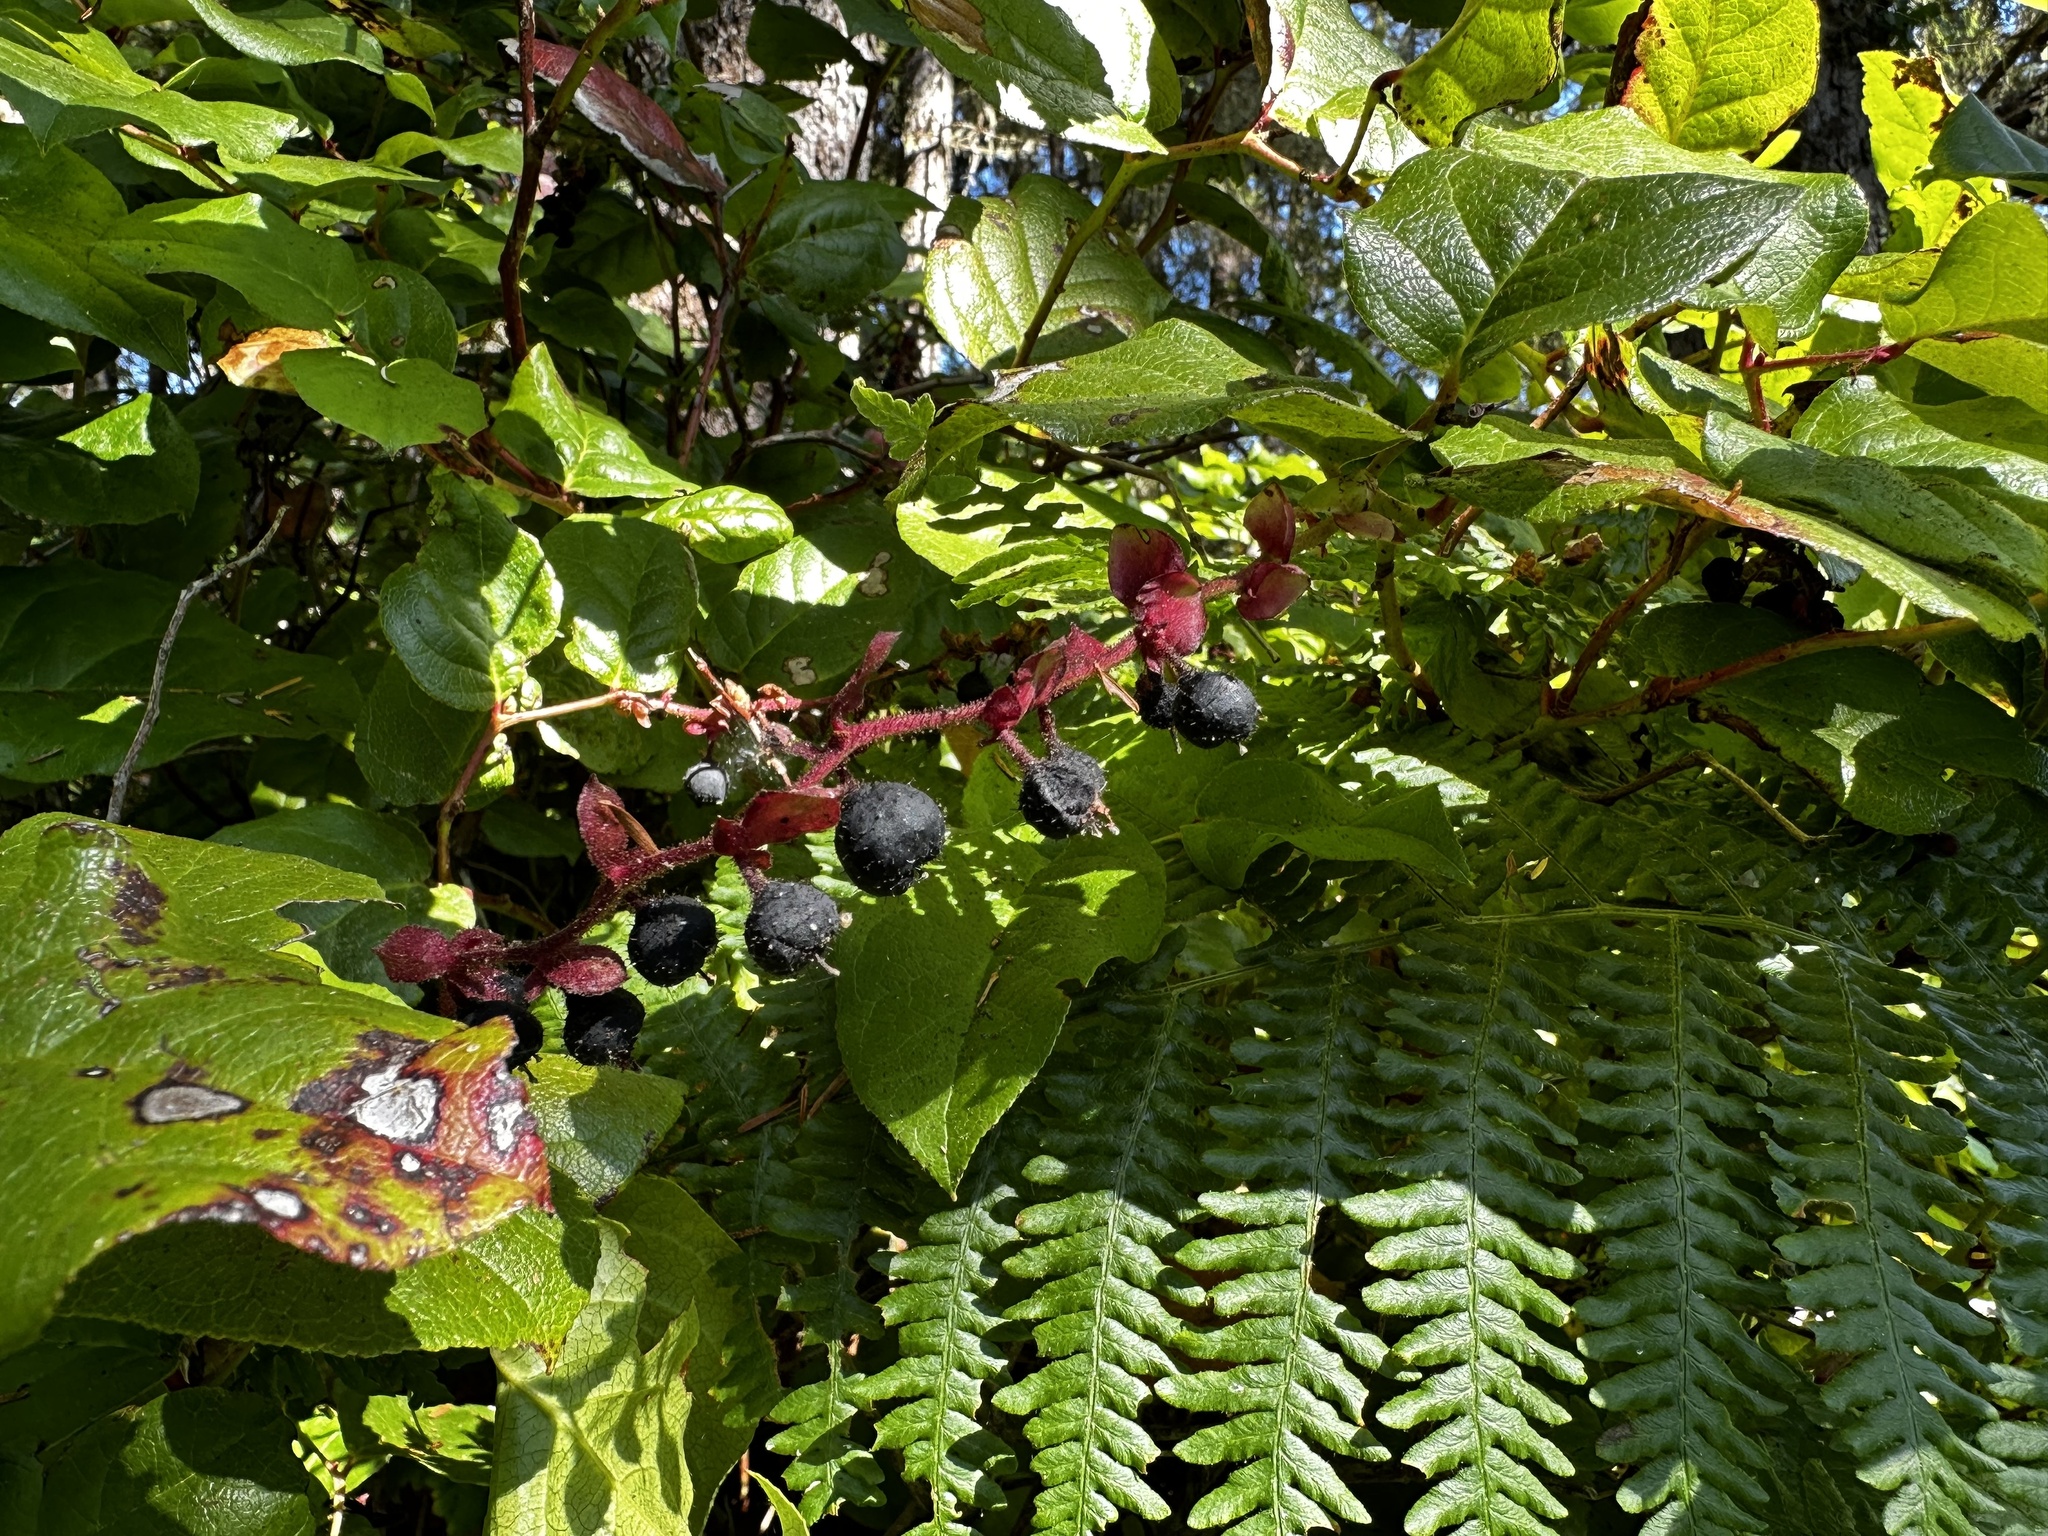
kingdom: Plantae
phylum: Tracheophyta
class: Magnoliopsida
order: Ericales
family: Ericaceae
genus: Gaultheria
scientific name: Gaultheria shallon
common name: Shallon
